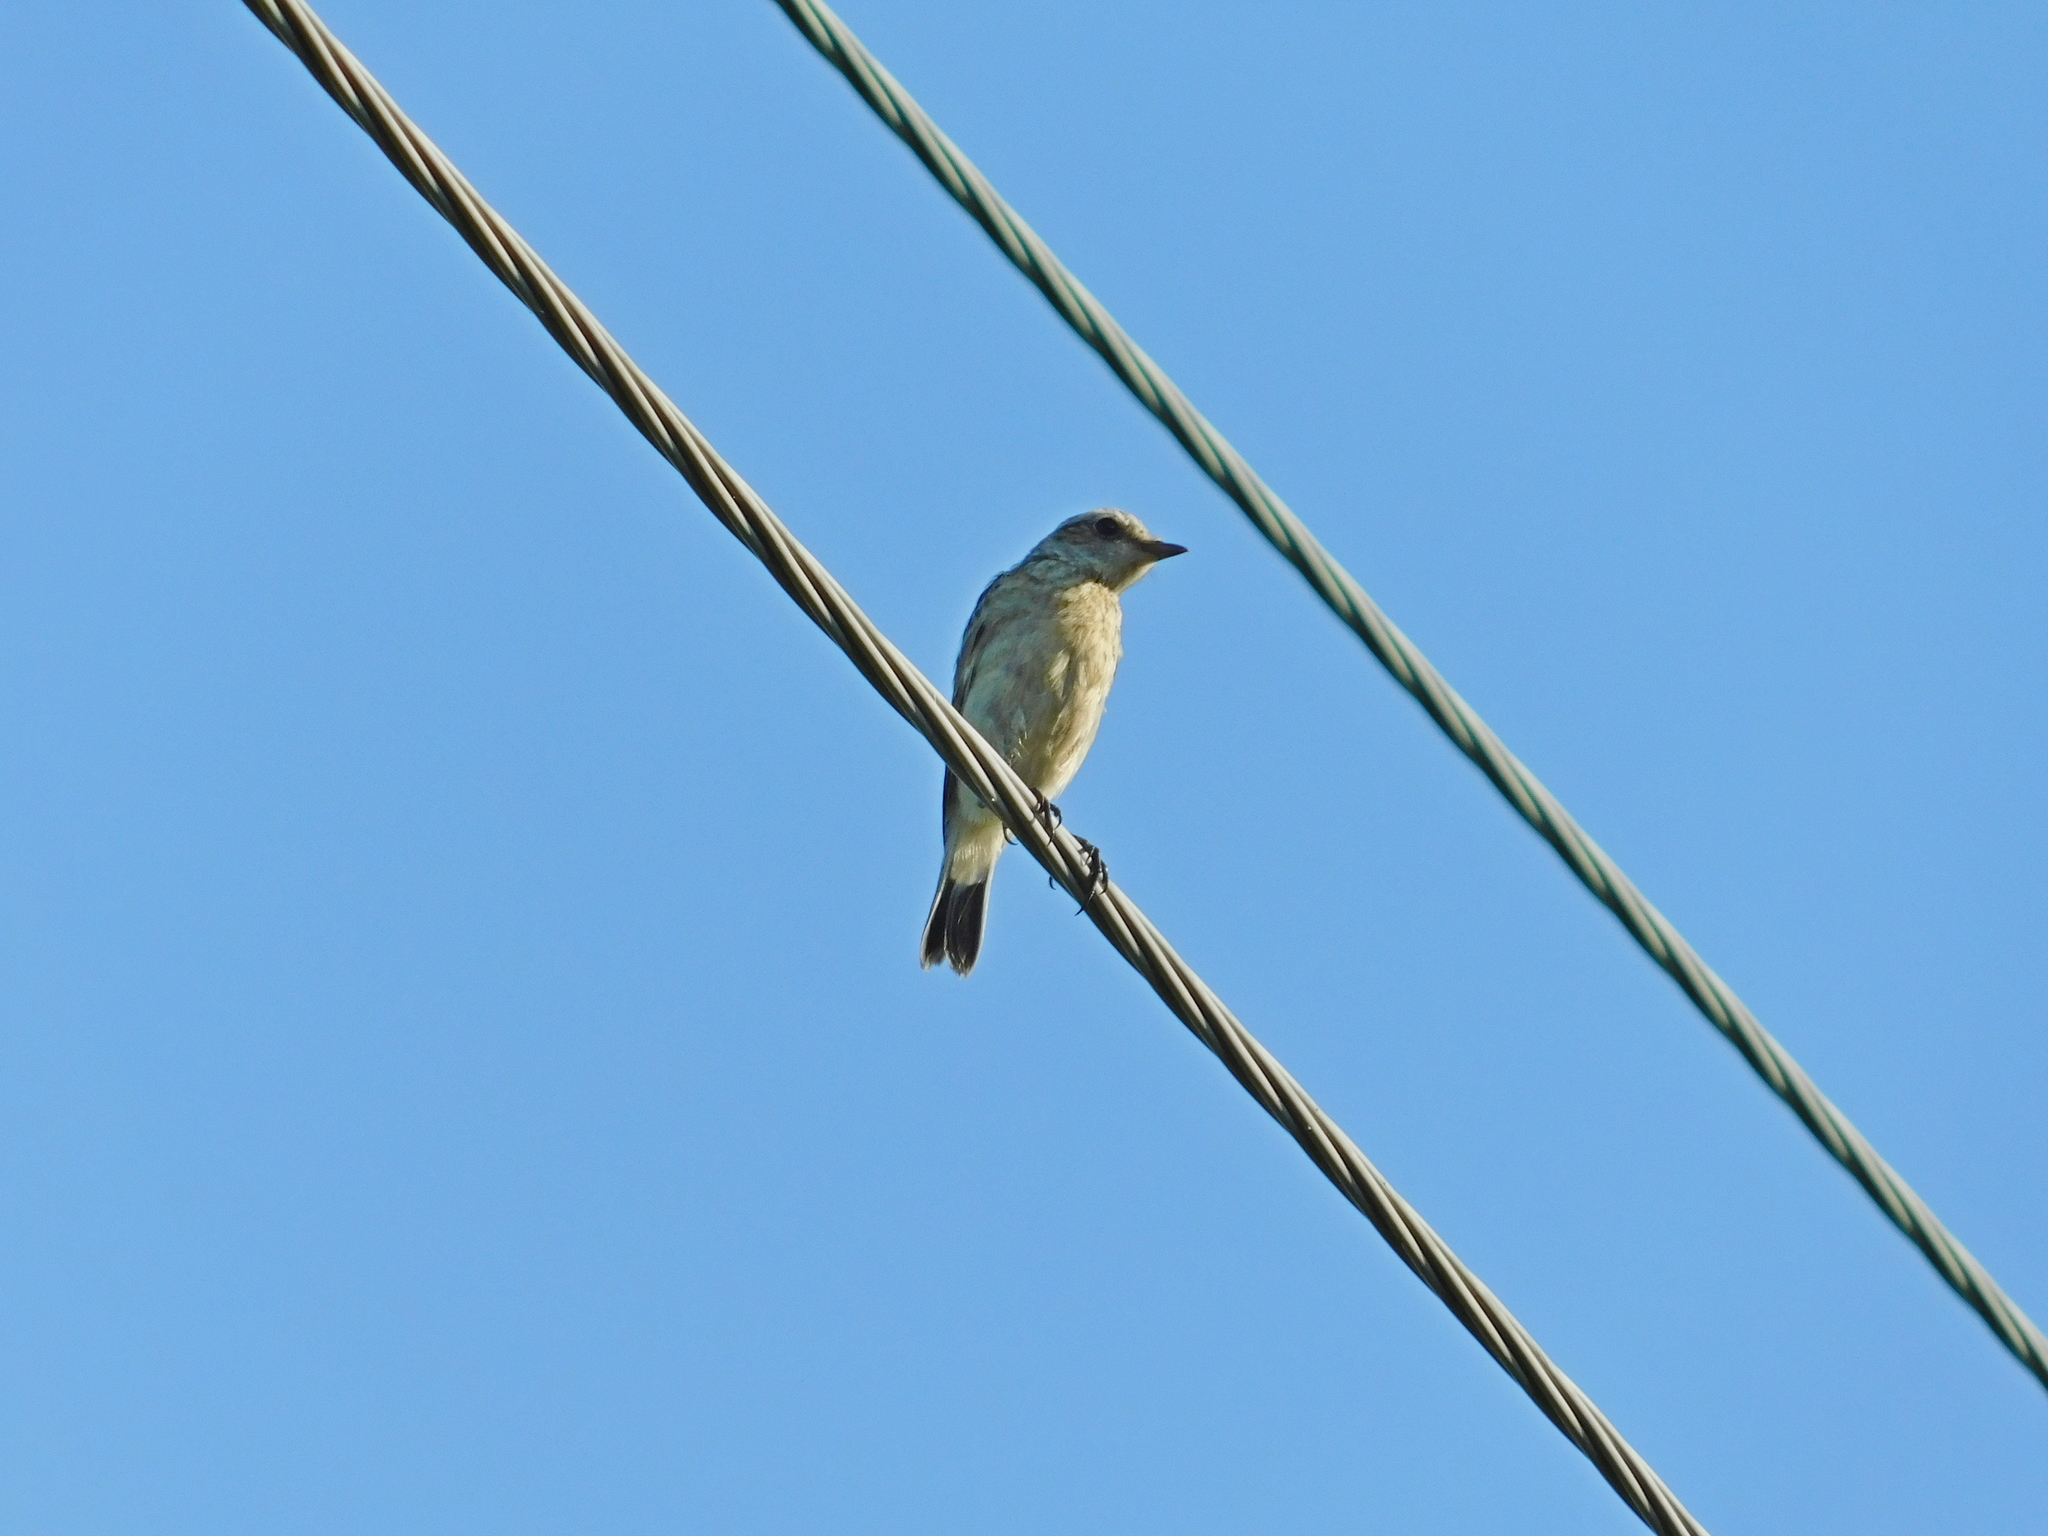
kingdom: Animalia
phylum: Chordata
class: Aves
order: Passeriformes
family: Muscicapidae
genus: Saxicola
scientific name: Saxicola rubetra
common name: Whinchat
